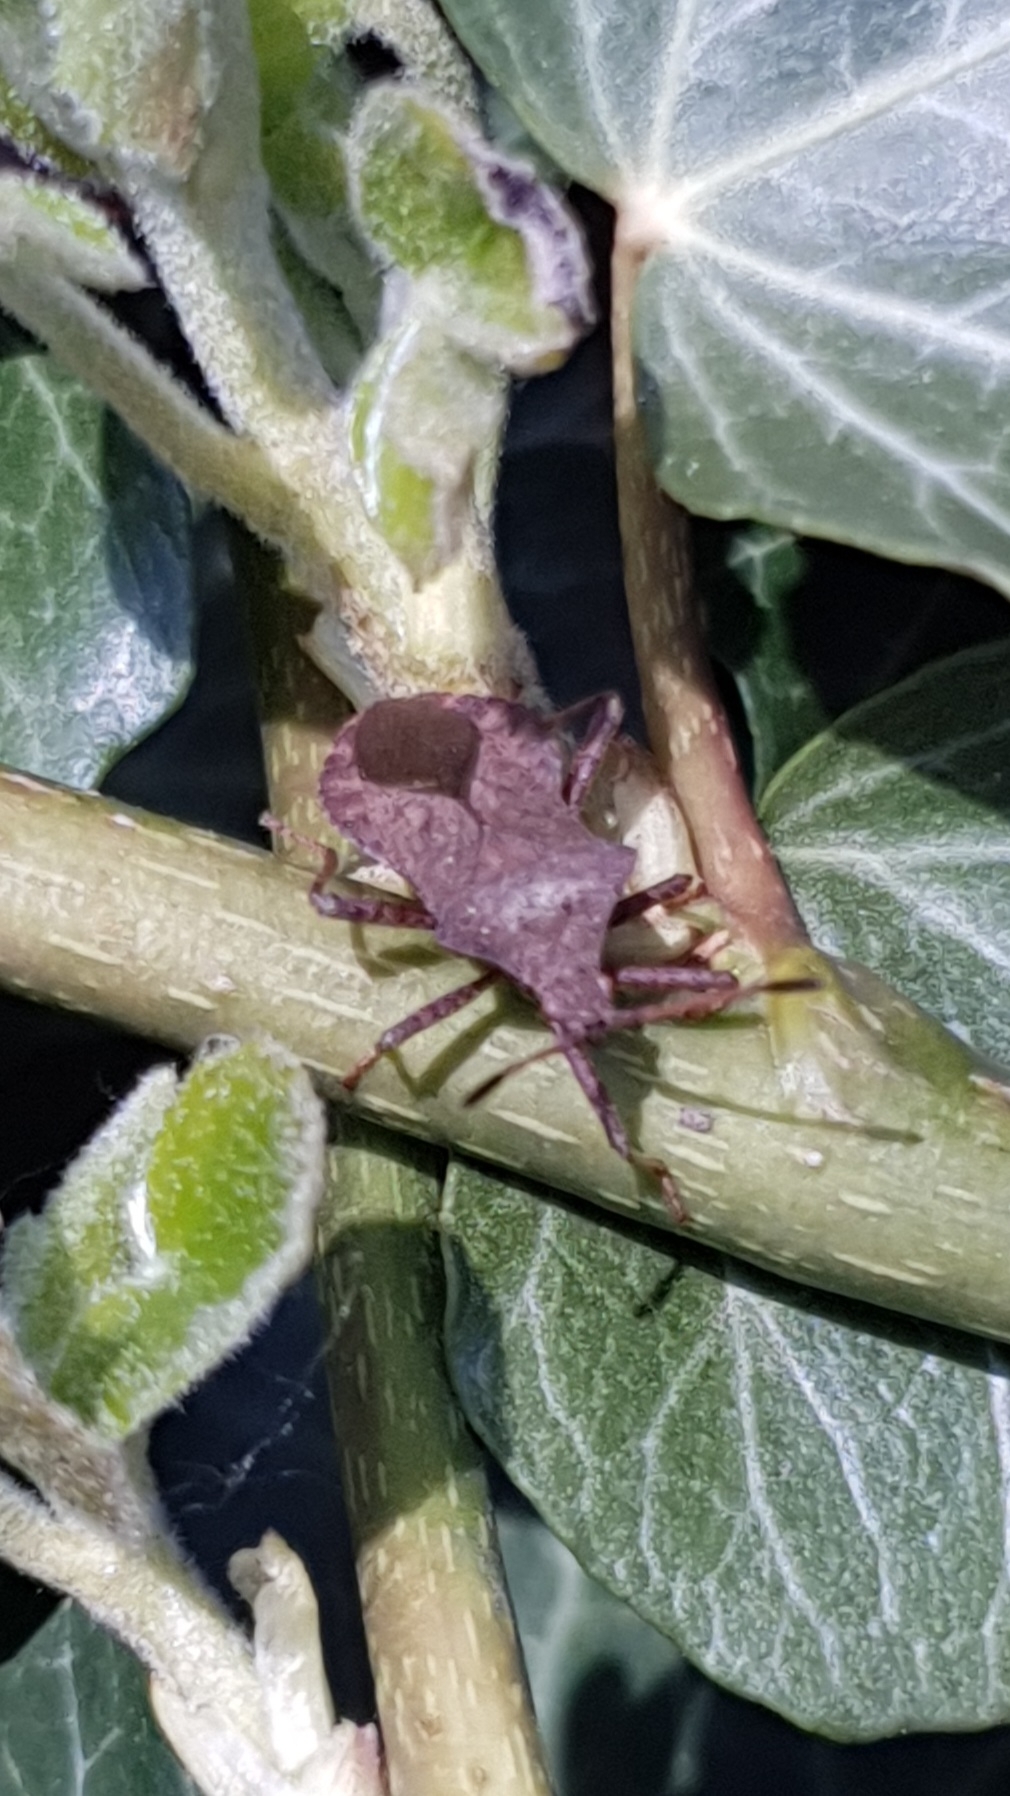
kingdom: Animalia
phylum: Arthropoda
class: Insecta
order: Hemiptera
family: Coreidae
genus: Coreus
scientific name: Coreus marginatus
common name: Dock bug
